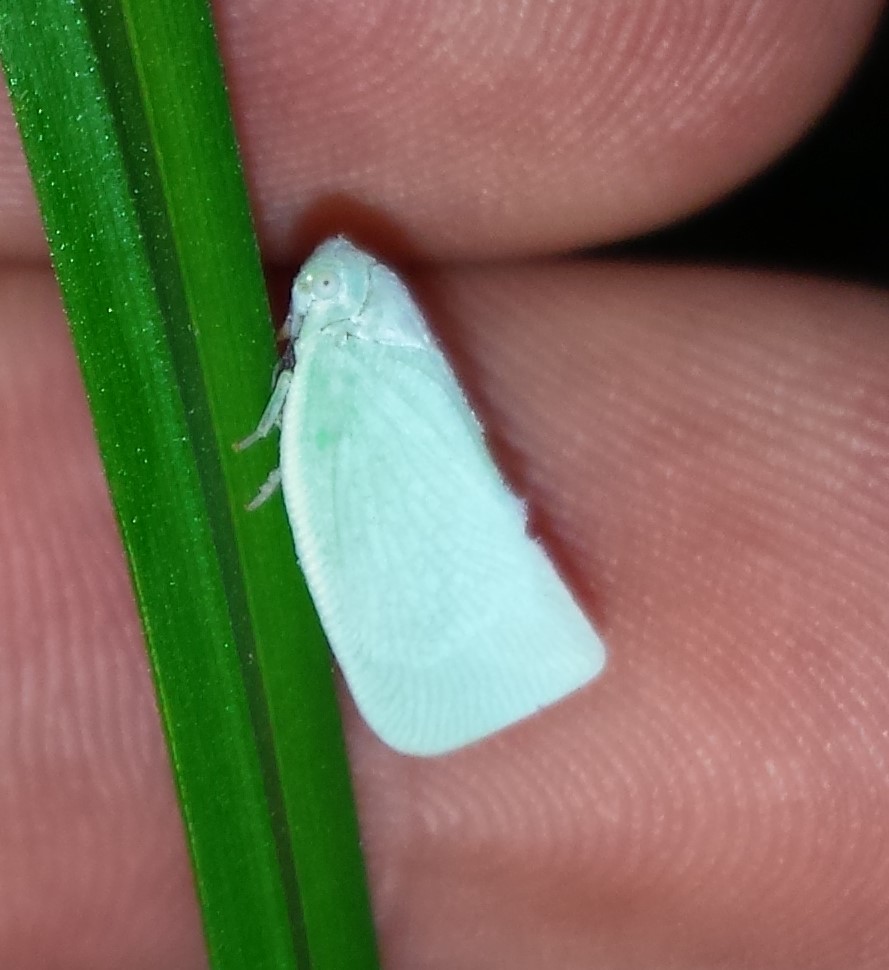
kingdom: Animalia
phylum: Arthropoda
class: Insecta
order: Hemiptera
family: Flatidae
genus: Flatormenis
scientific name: Flatormenis proxima
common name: Northern flatid planthopper
